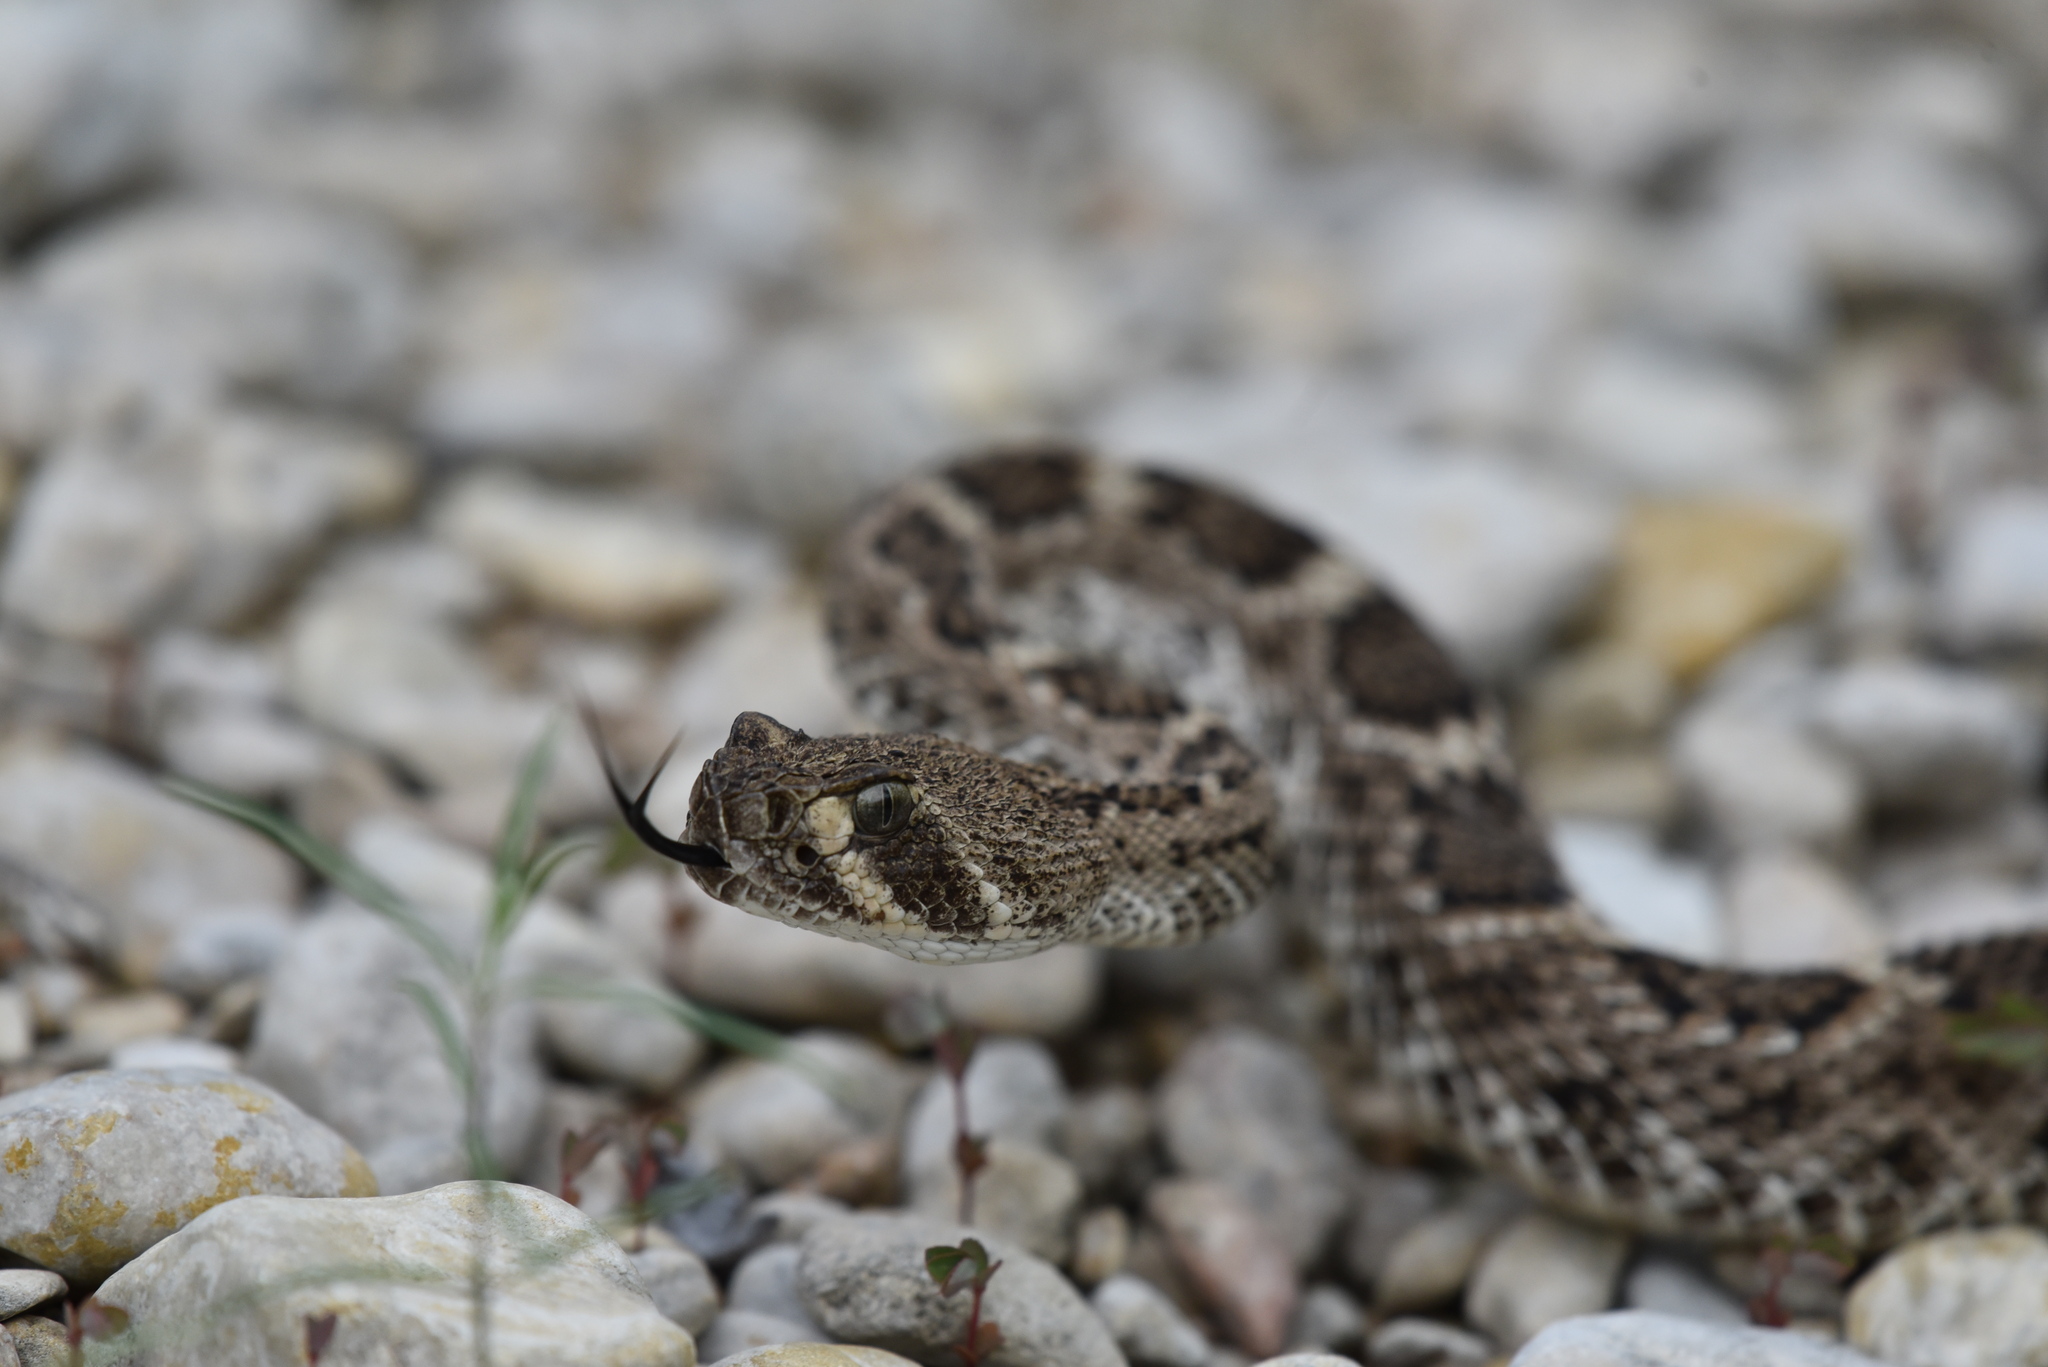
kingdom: Animalia
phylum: Chordata
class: Squamata
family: Viperidae
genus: Crotalus
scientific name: Crotalus atrox
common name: Western diamond-backed rattlesnake
